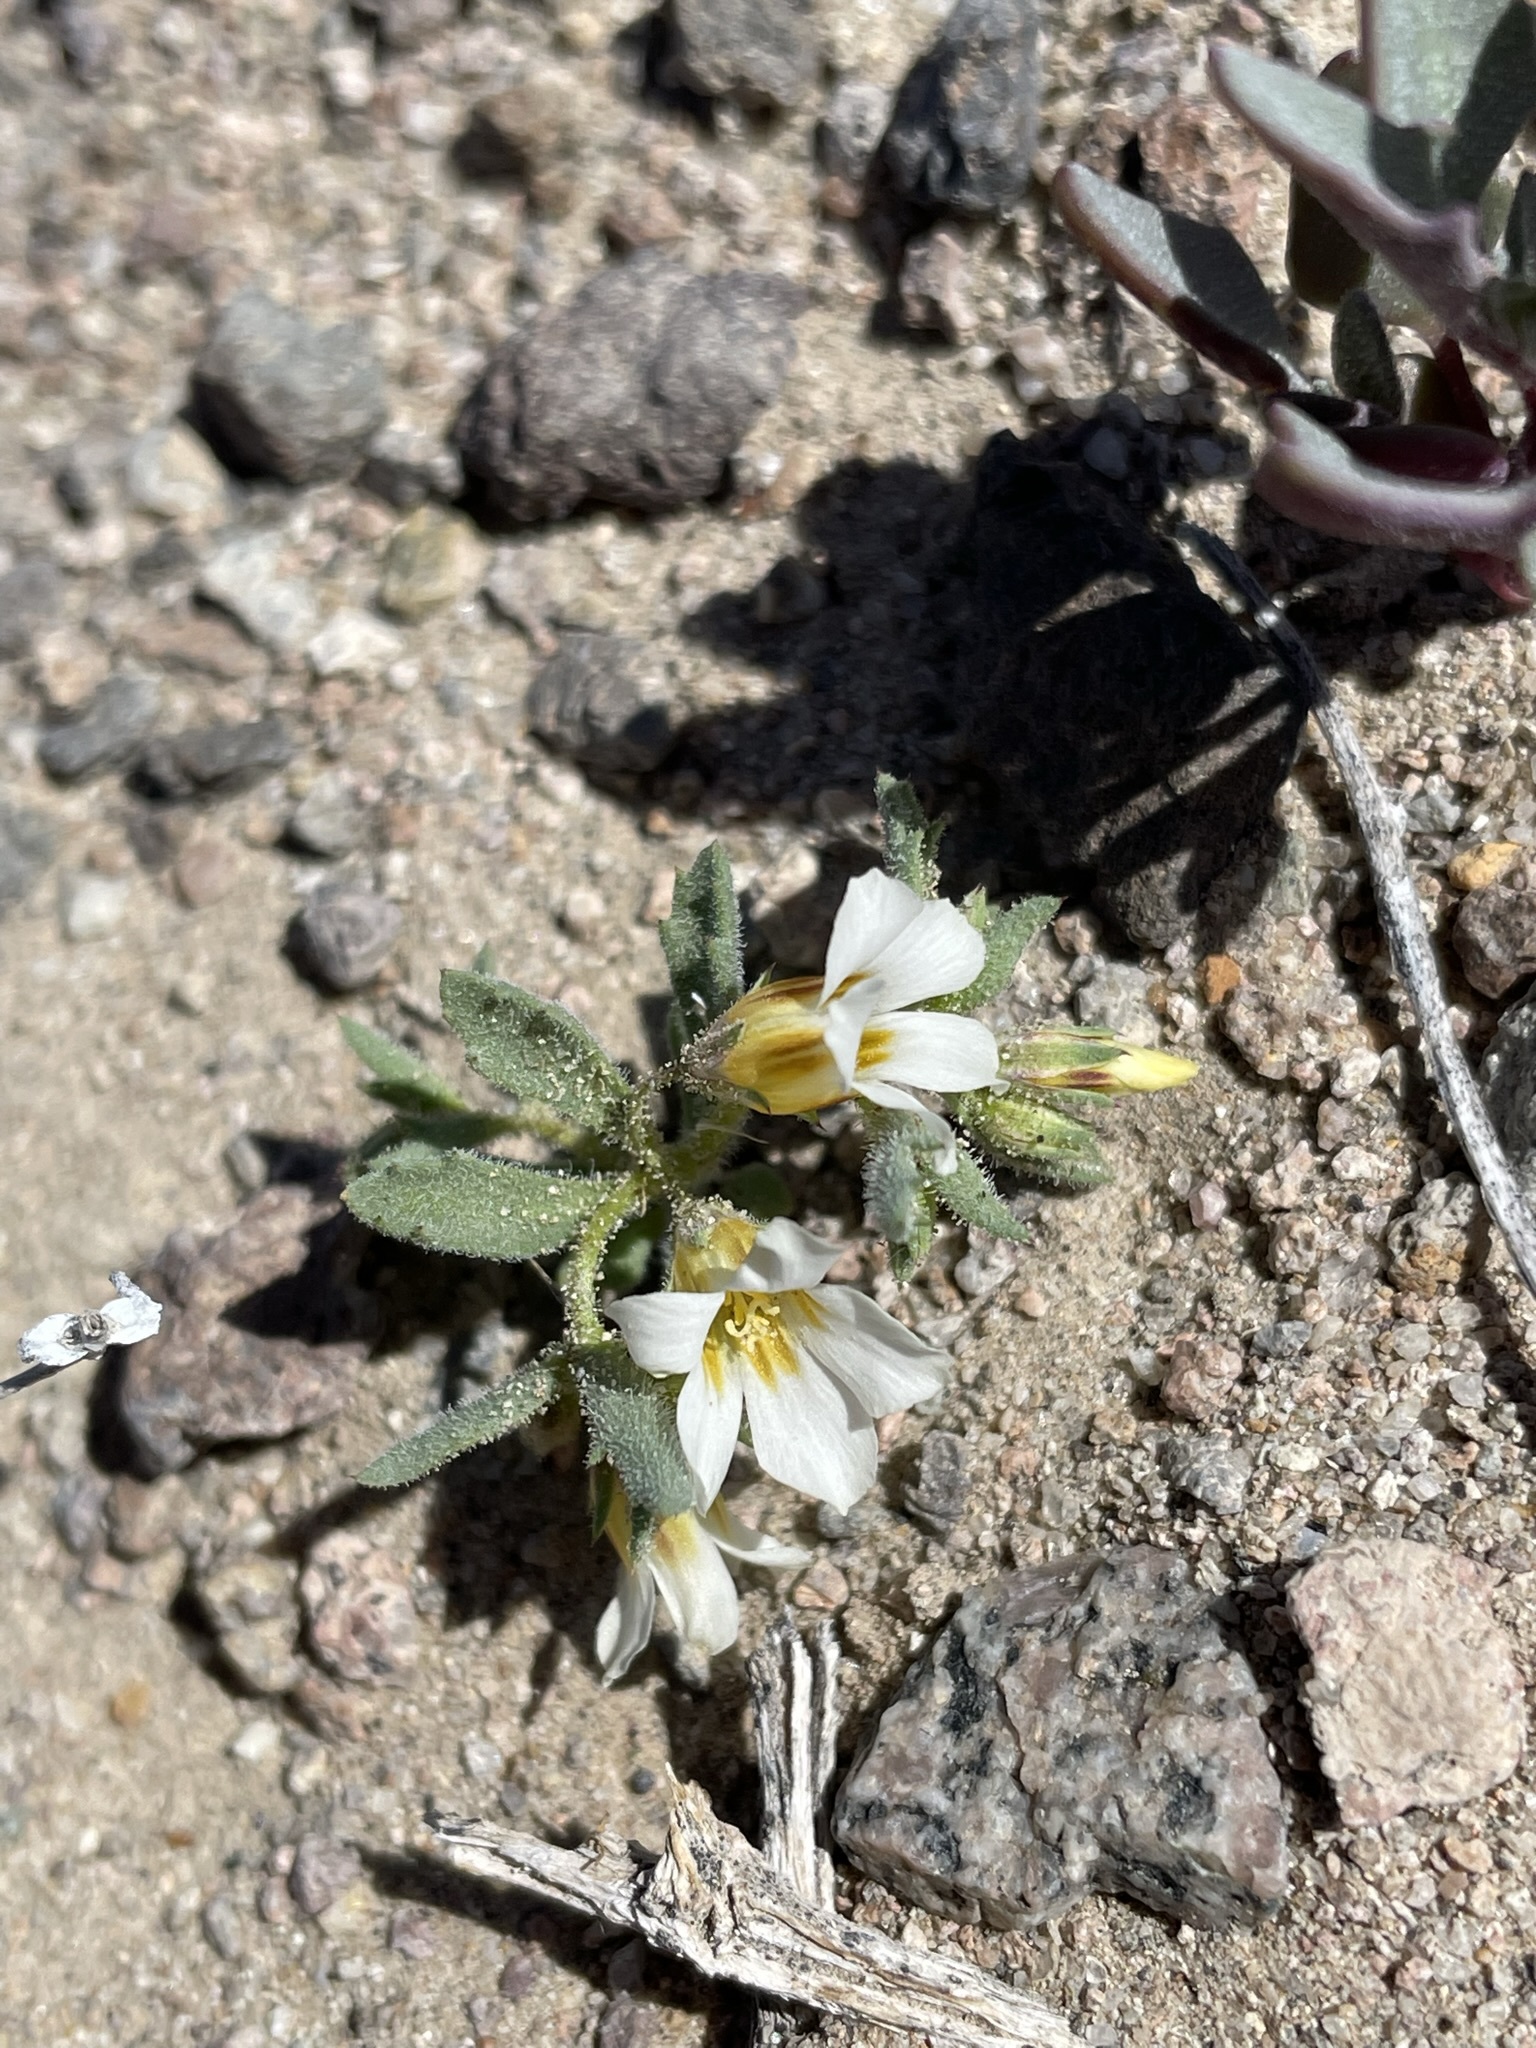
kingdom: Plantae
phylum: Tracheophyta
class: Magnoliopsida
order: Ericales
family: Polemoniaceae
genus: Linanthus
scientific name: Linanthus campanulatus
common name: Bellshape gilia
